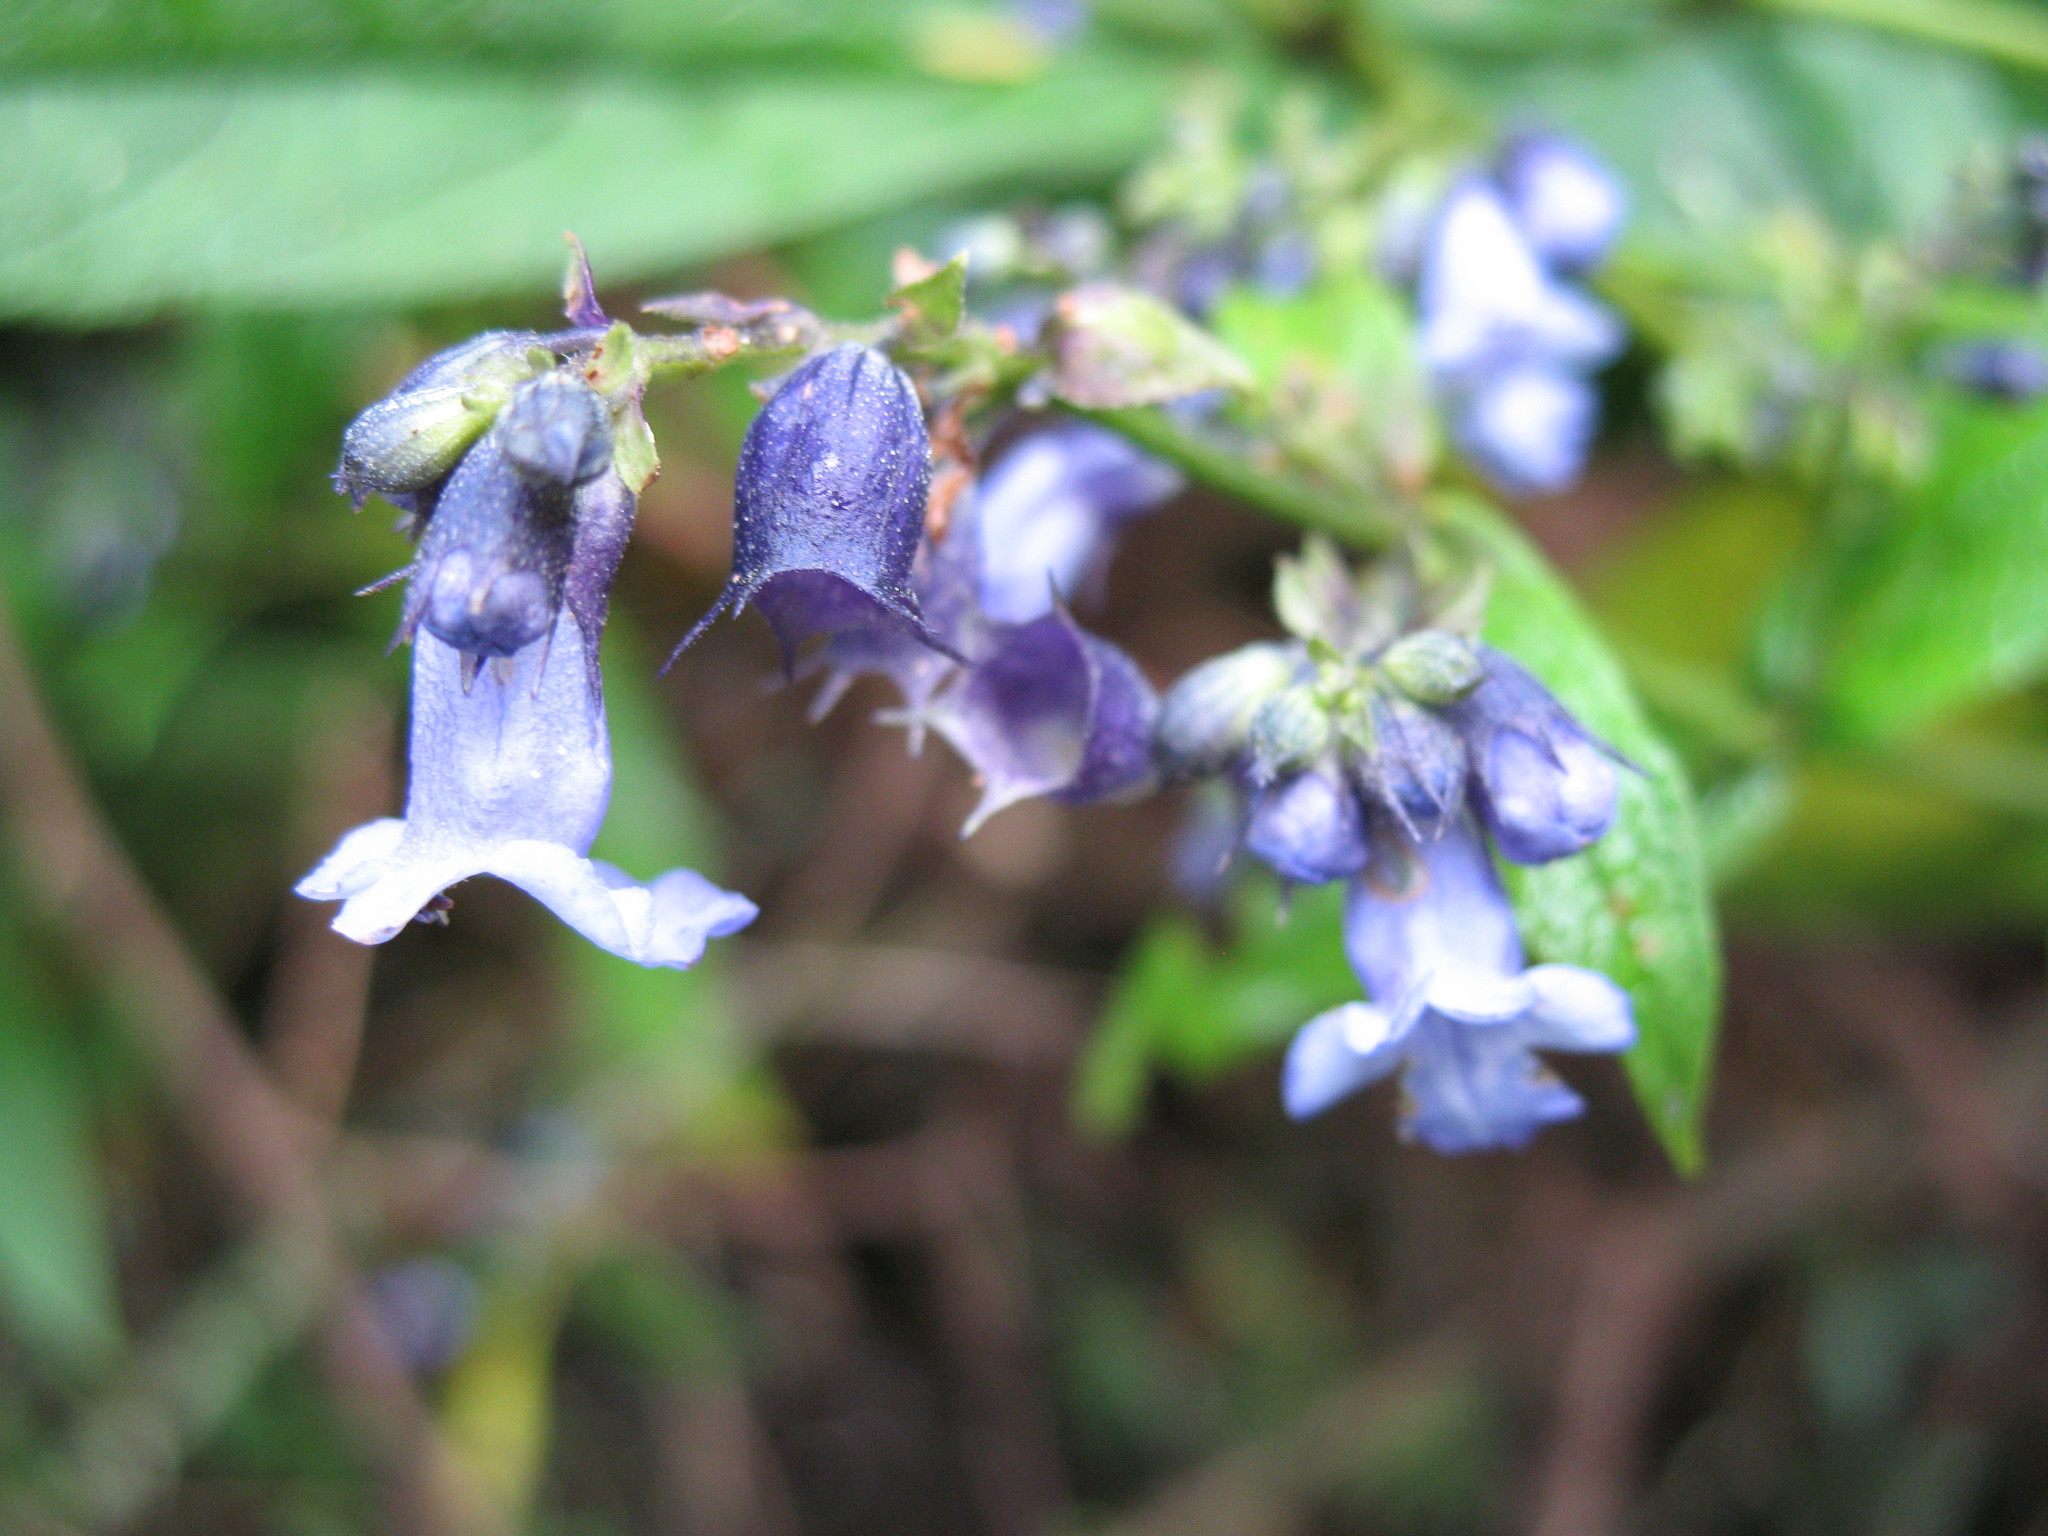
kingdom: Plantae
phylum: Tracheophyta
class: Magnoliopsida
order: Lamiales
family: Lamiaceae
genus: Lepechinia
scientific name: Lepechinia codon
